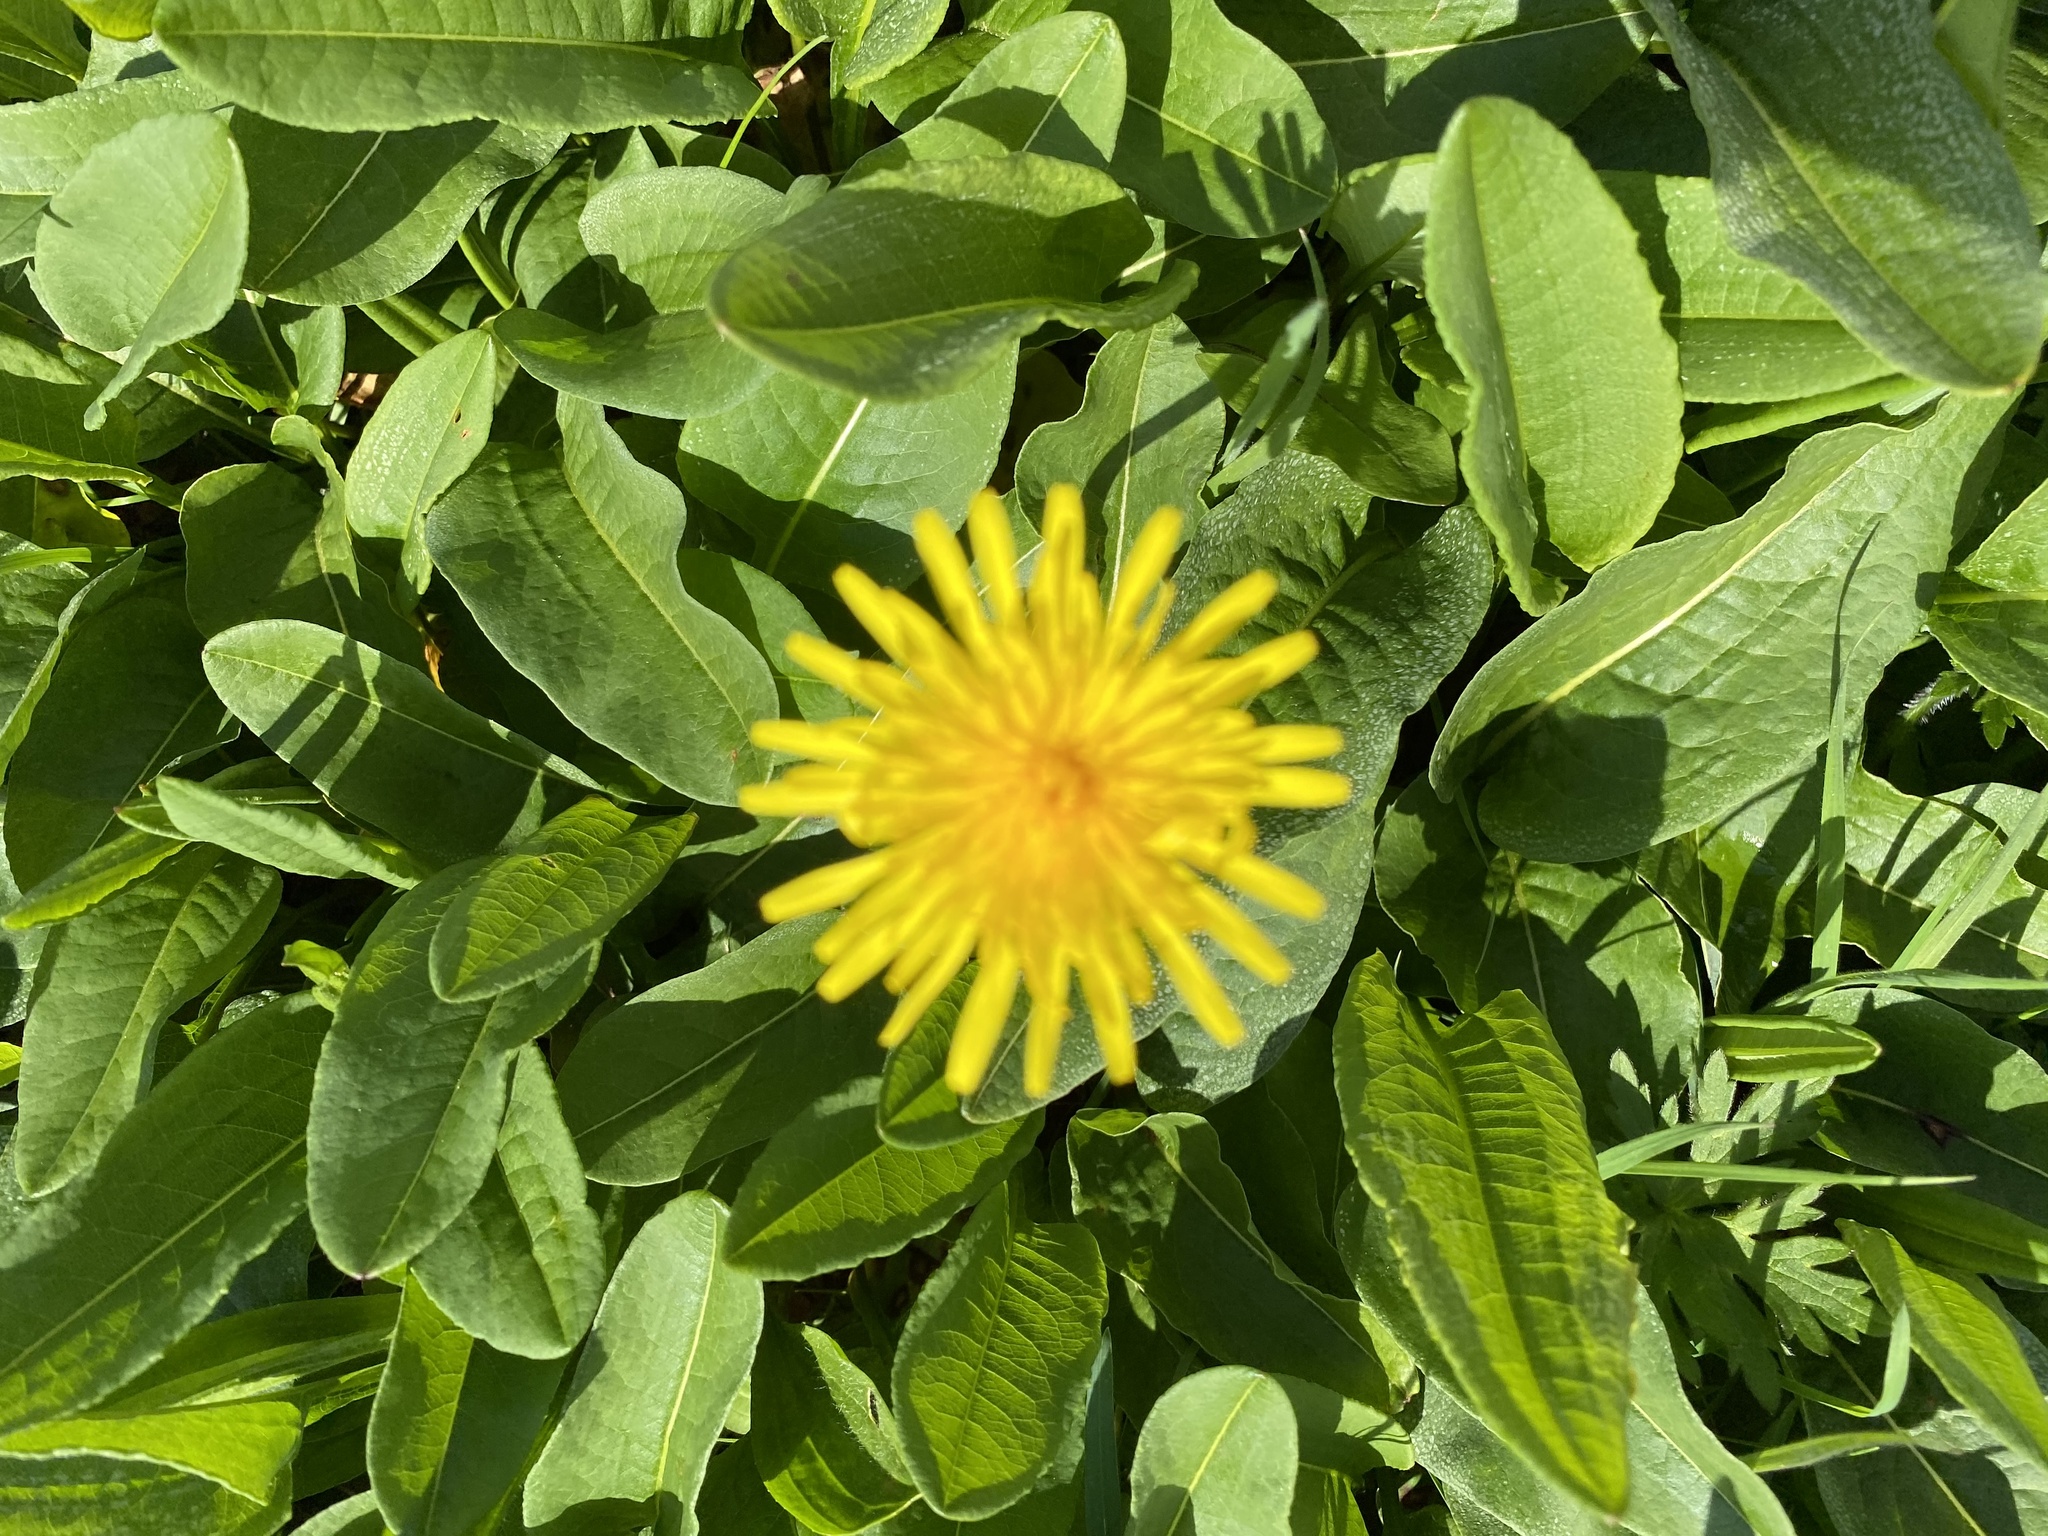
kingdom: Plantae
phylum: Tracheophyta
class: Magnoliopsida
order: Asterales
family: Asteraceae
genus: Taraxacum
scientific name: Taraxacum
